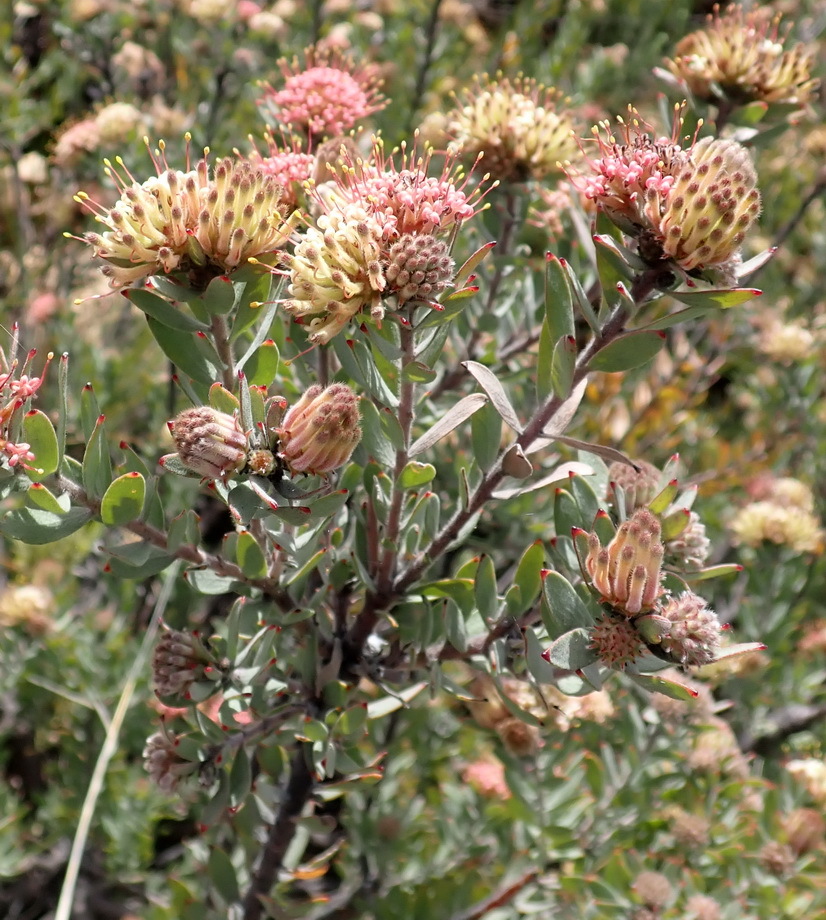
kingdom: Plantae
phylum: Tracheophyta
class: Magnoliopsida
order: Proteales
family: Proteaceae
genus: Leucospermum
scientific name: Leucospermum wittebergense
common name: Swartberg pincushion
